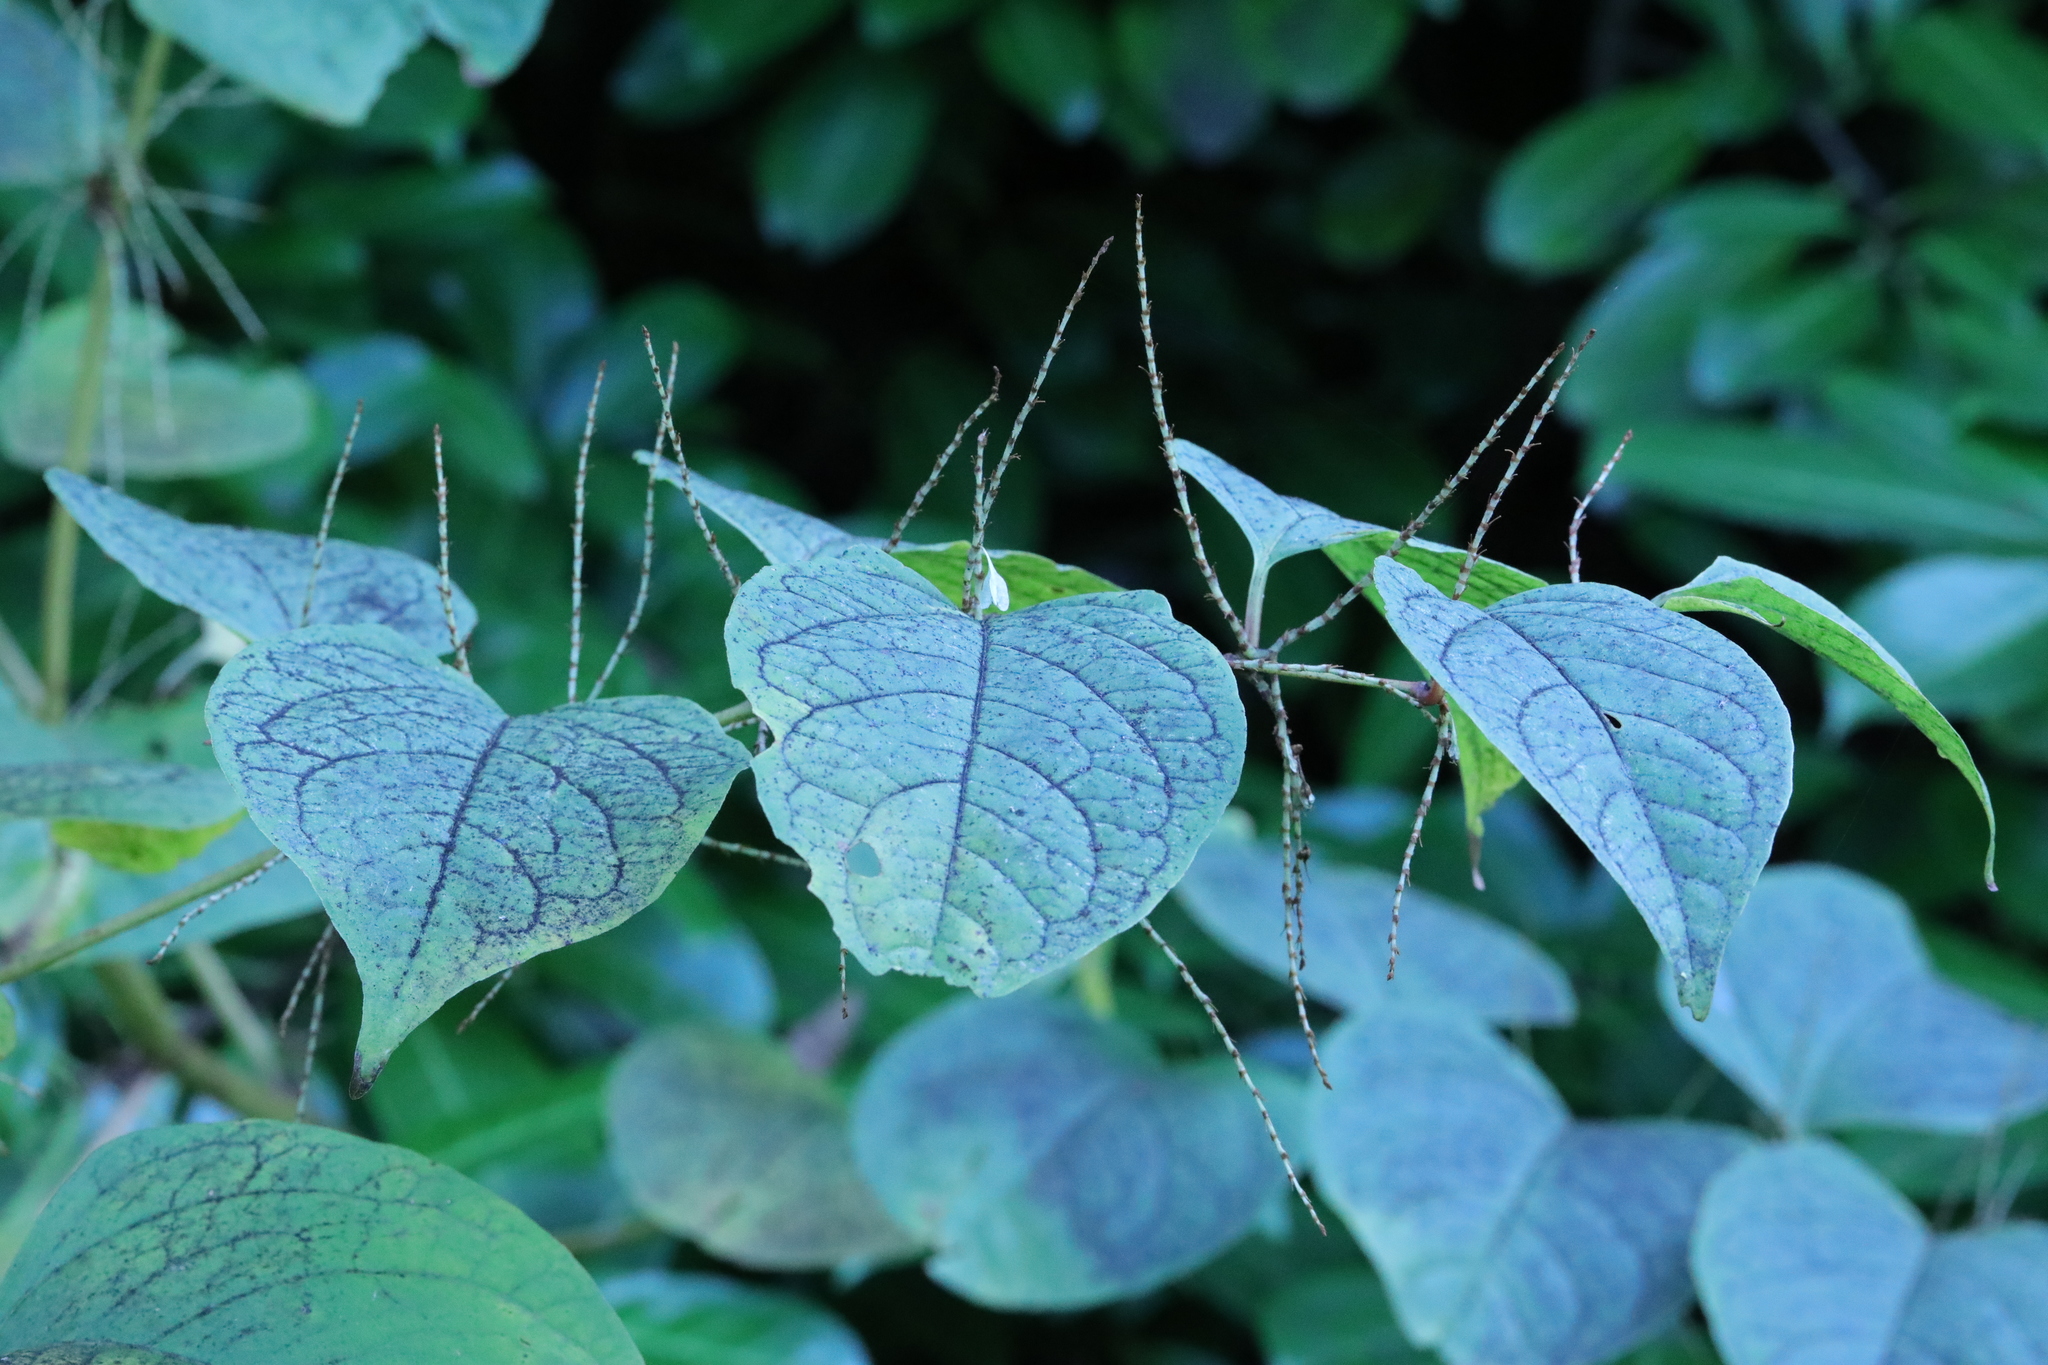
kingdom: Plantae
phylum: Tracheophyta
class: Magnoliopsida
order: Caryophyllales
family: Polygonaceae
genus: Reynoutria
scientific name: Reynoutria japonica
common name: Japanese knotweed
